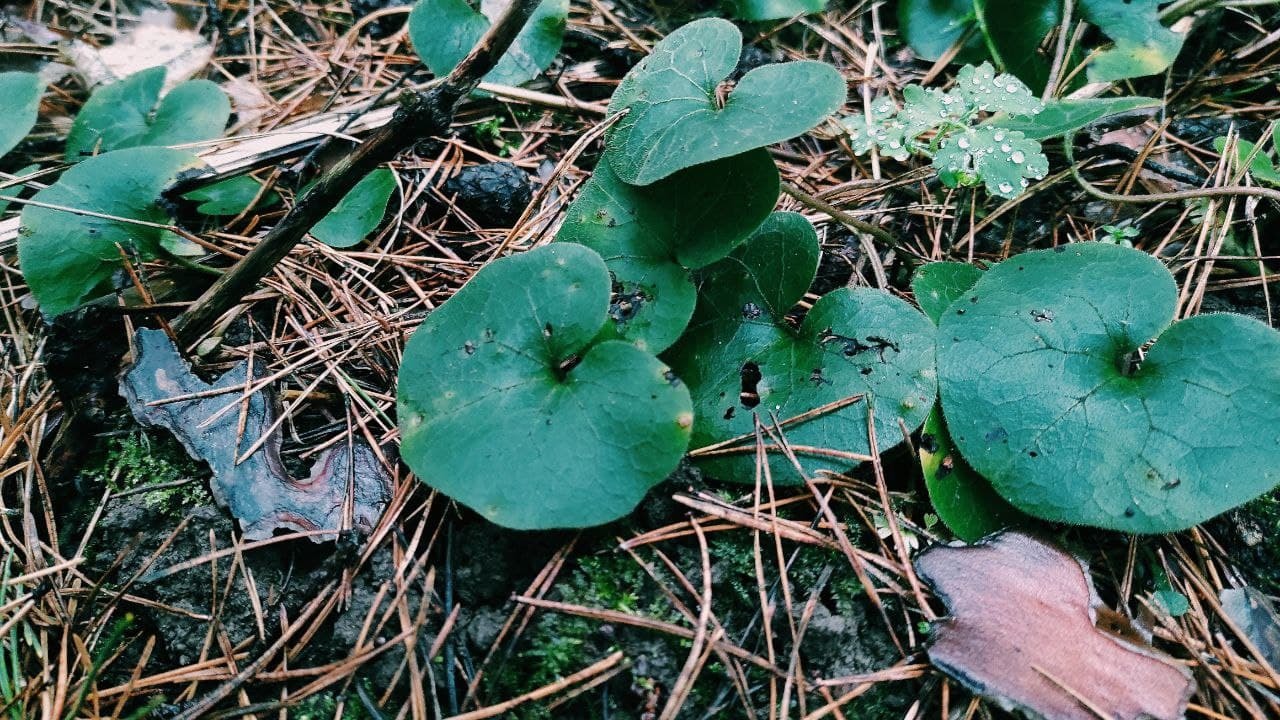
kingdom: Plantae
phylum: Tracheophyta
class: Magnoliopsida
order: Piperales
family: Aristolochiaceae
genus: Asarum
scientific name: Asarum europaeum
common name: Asarabacca
